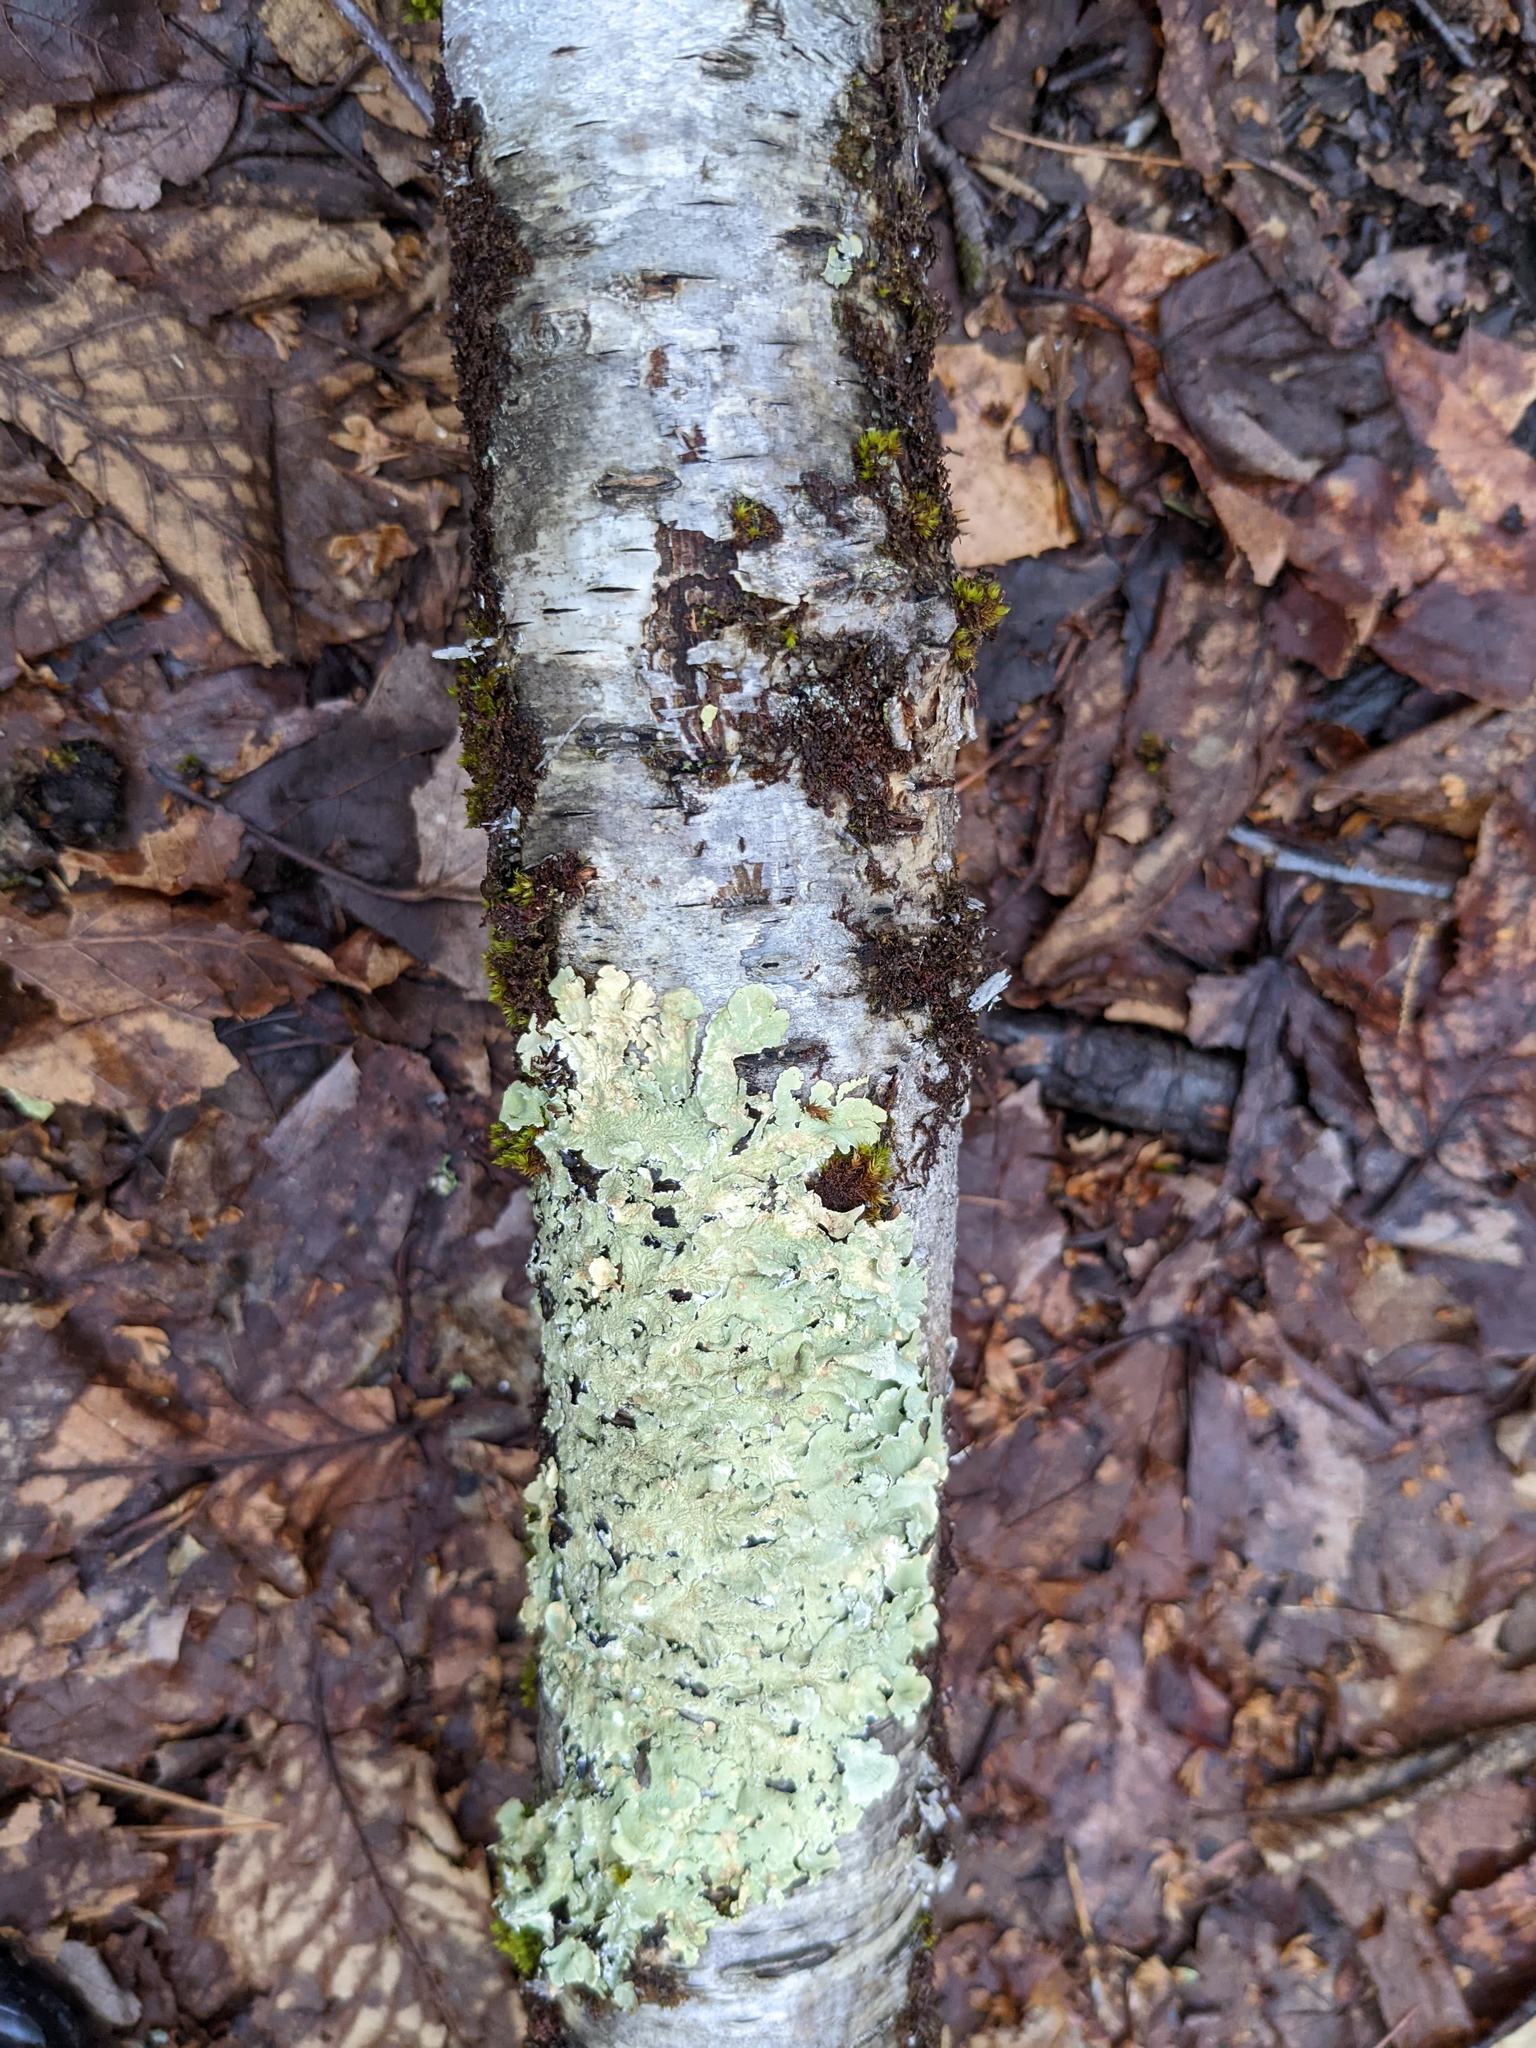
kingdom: Fungi
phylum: Ascomycota
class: Lecanoromycetes
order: Lecanorales
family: Parmeliaceae
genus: Flavoparmelia
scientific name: Flavoparmelia caperata
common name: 40-mile per hour lichen
